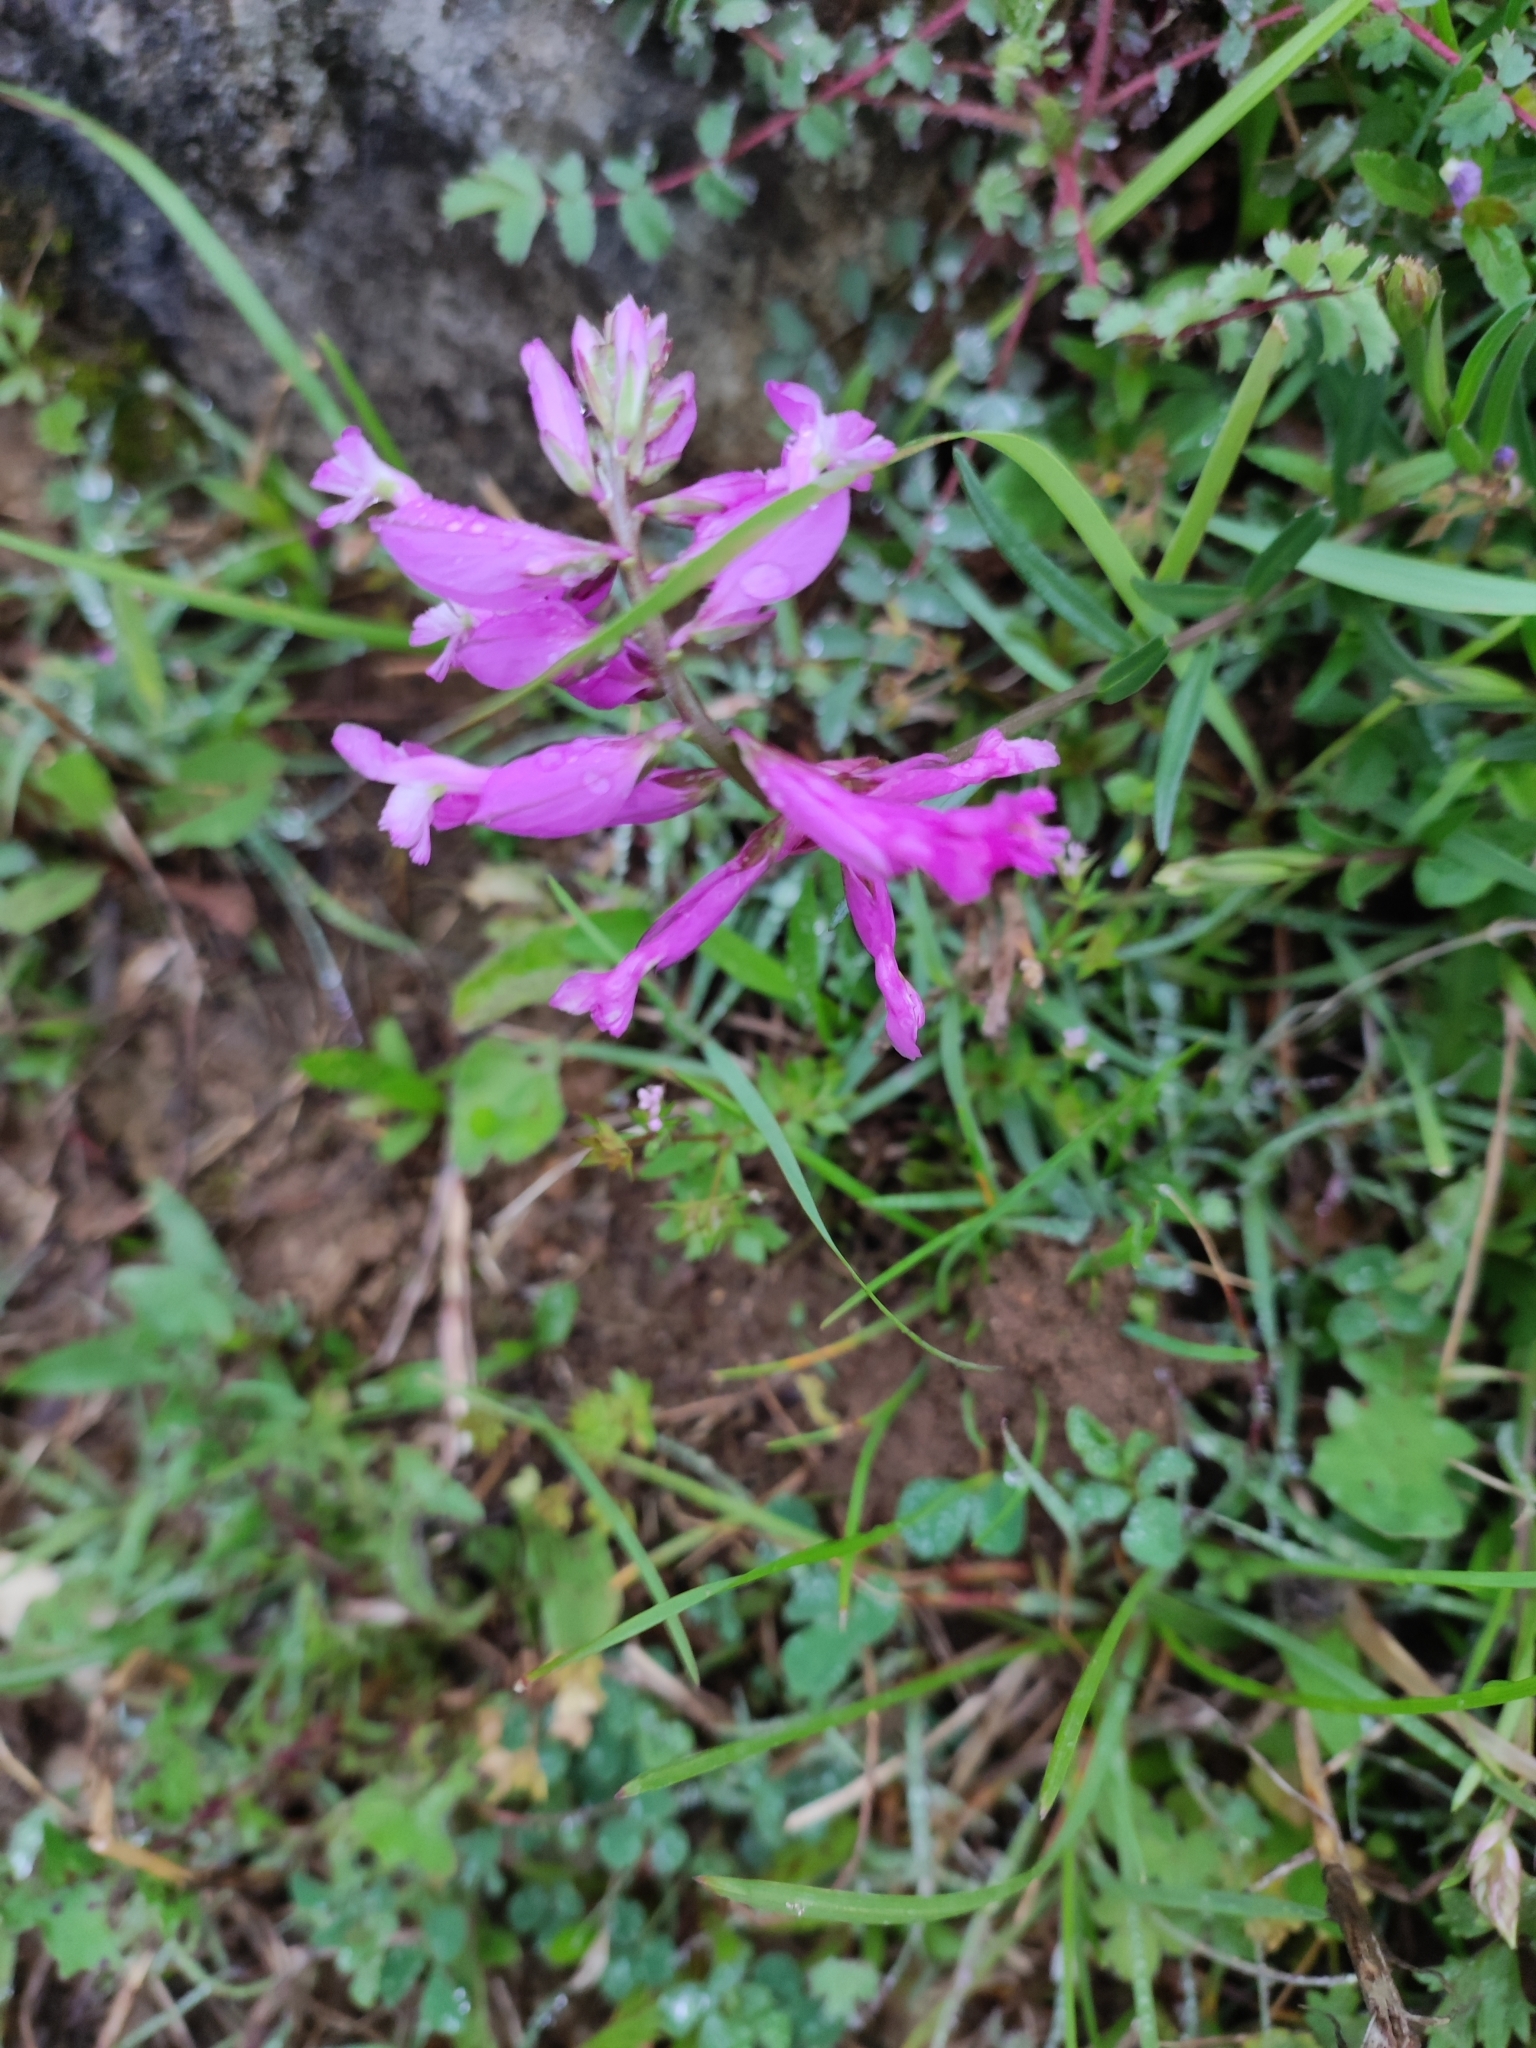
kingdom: Plantae
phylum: Tracheophyta
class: Magnoliopsida
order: Fabales
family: Polygalaceae
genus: Polygala
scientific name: Polygala major
